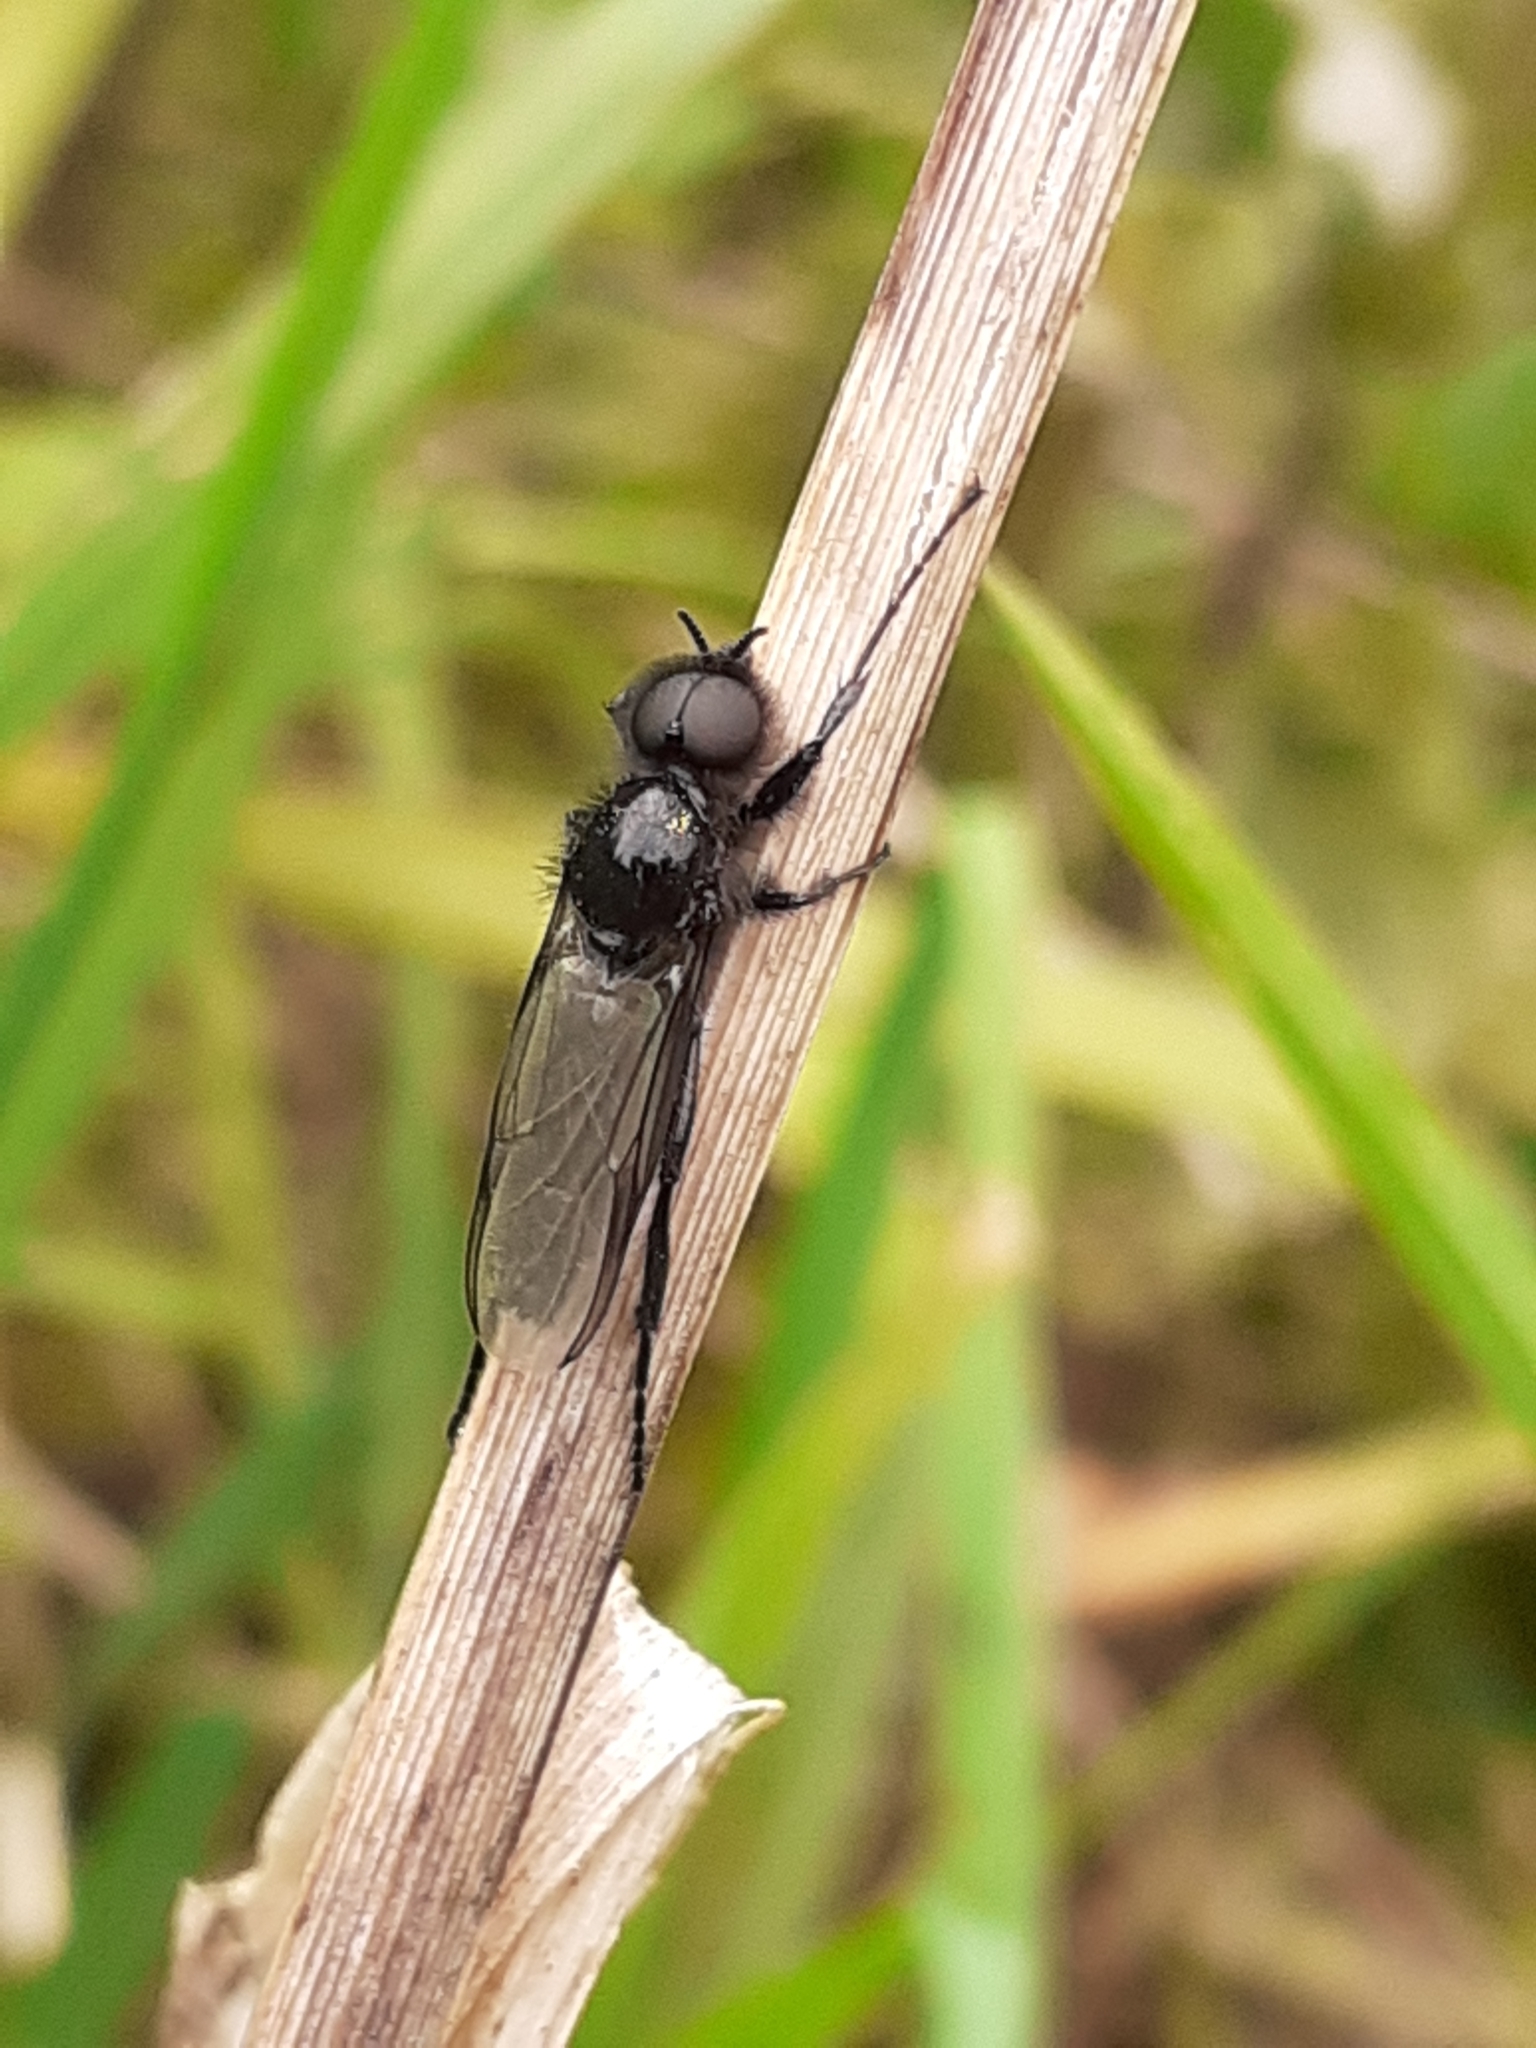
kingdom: Animalia
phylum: Arthropoda
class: Insecta
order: Diptera
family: Bibionidae
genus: Bibio
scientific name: Bibio marci
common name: St marks fly
